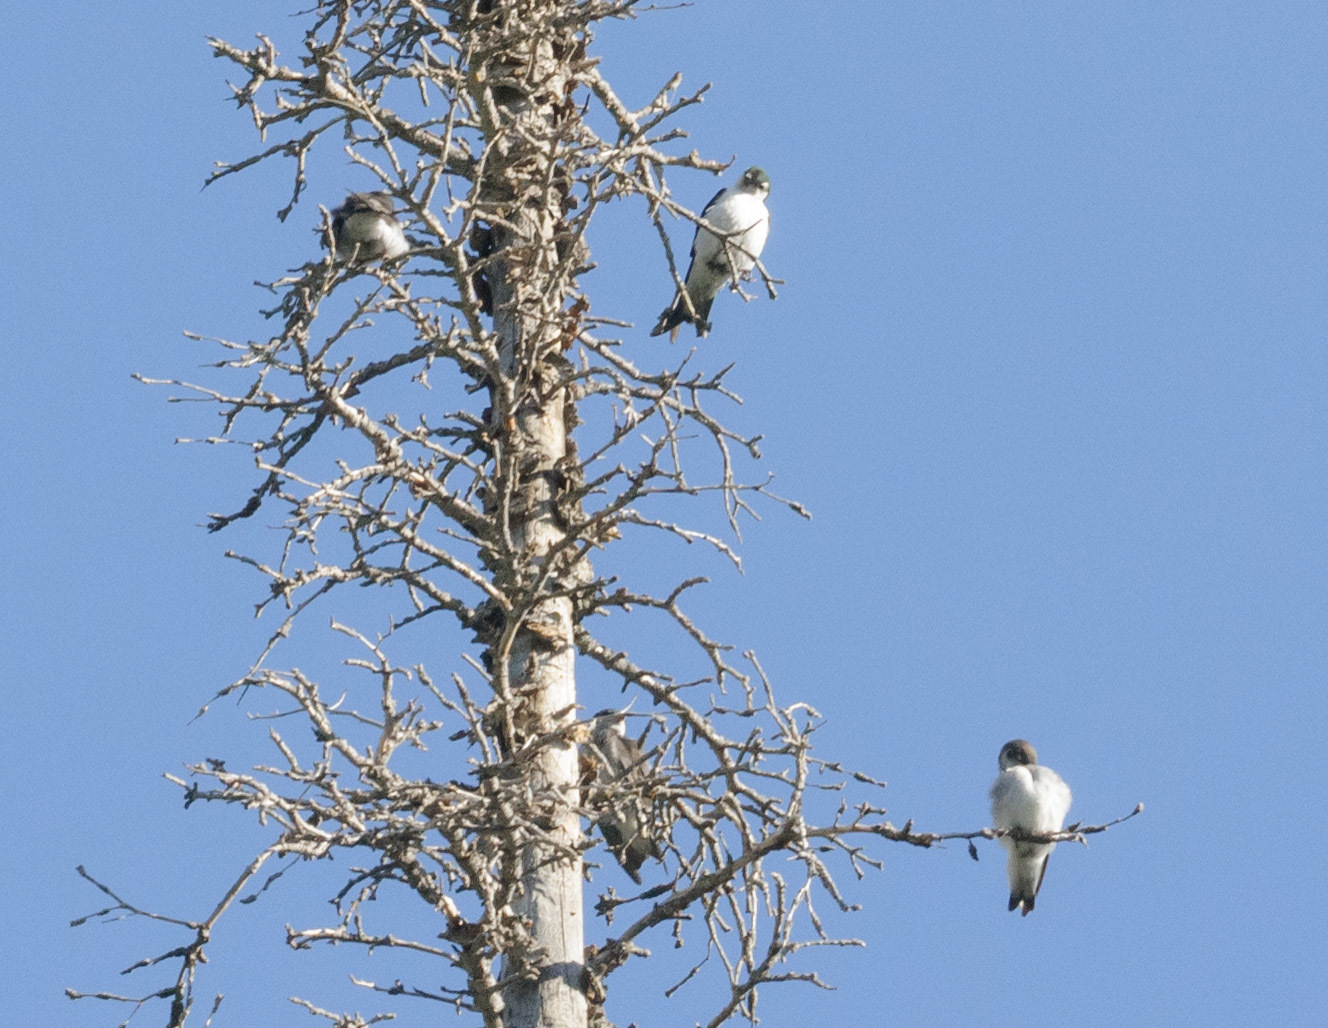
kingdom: Animalia
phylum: Chordata
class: Aves
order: Passeriformes
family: Hirundinidae
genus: Tachycineta
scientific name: Tachycineta thalassina
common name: Violet-green swallow
